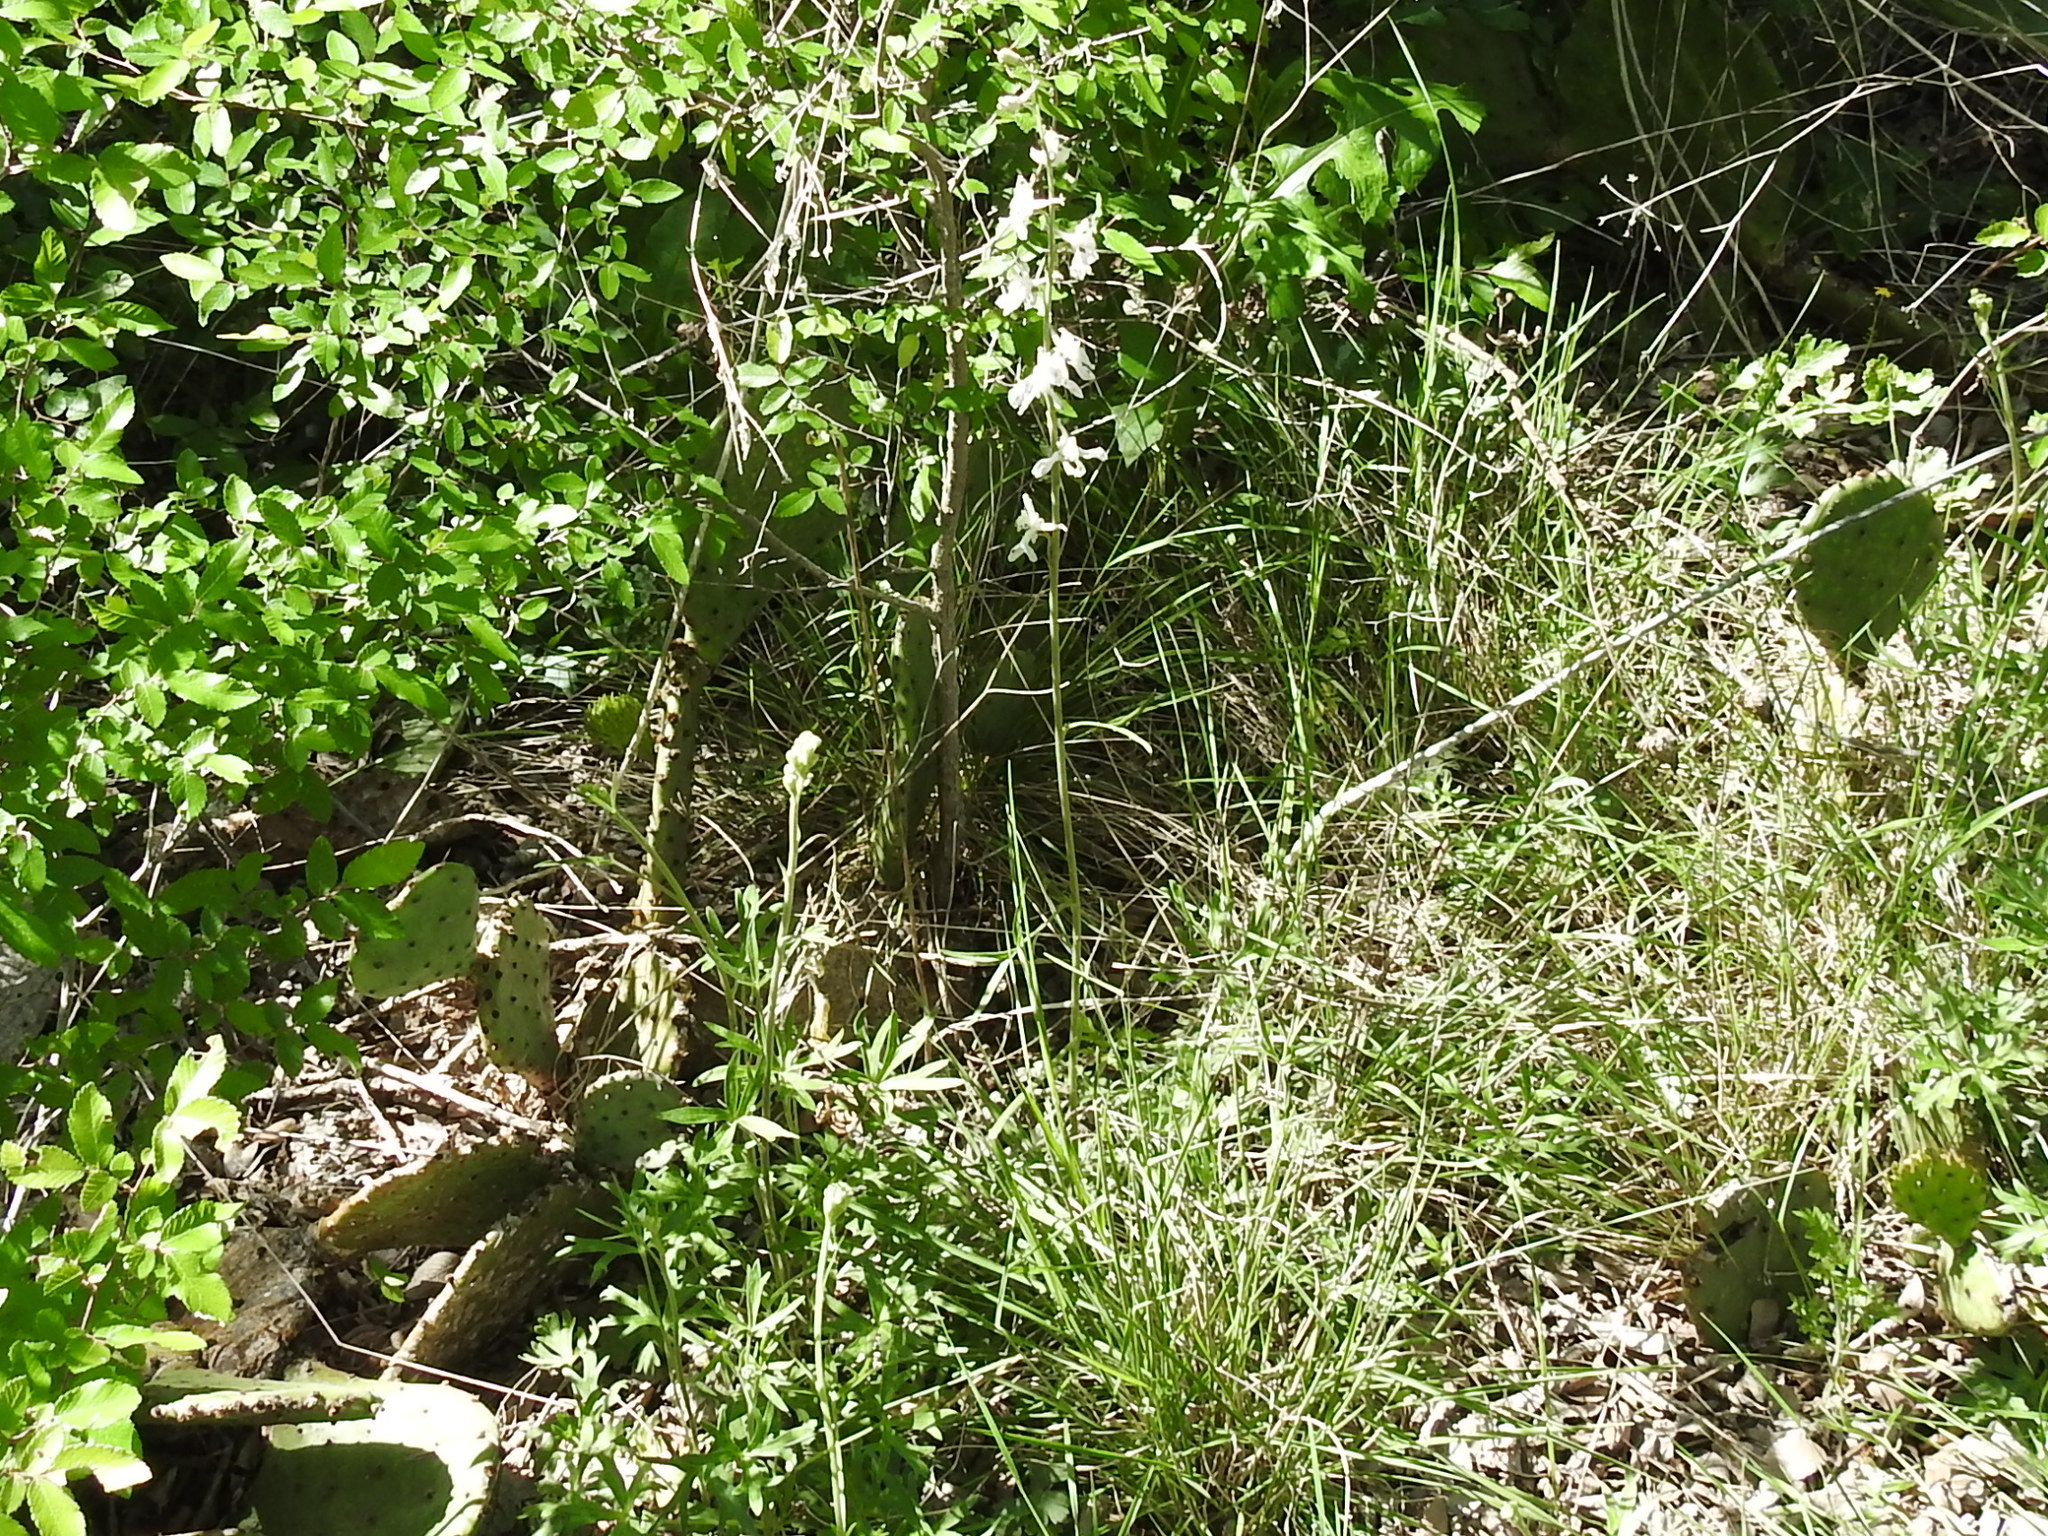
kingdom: Plantae
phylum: Tracheophyta
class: Magnoliopsida
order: Ranunculales
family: Ranunculaceae
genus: Delphinium
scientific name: Delphinium carolinianum
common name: Carolina larkspur
